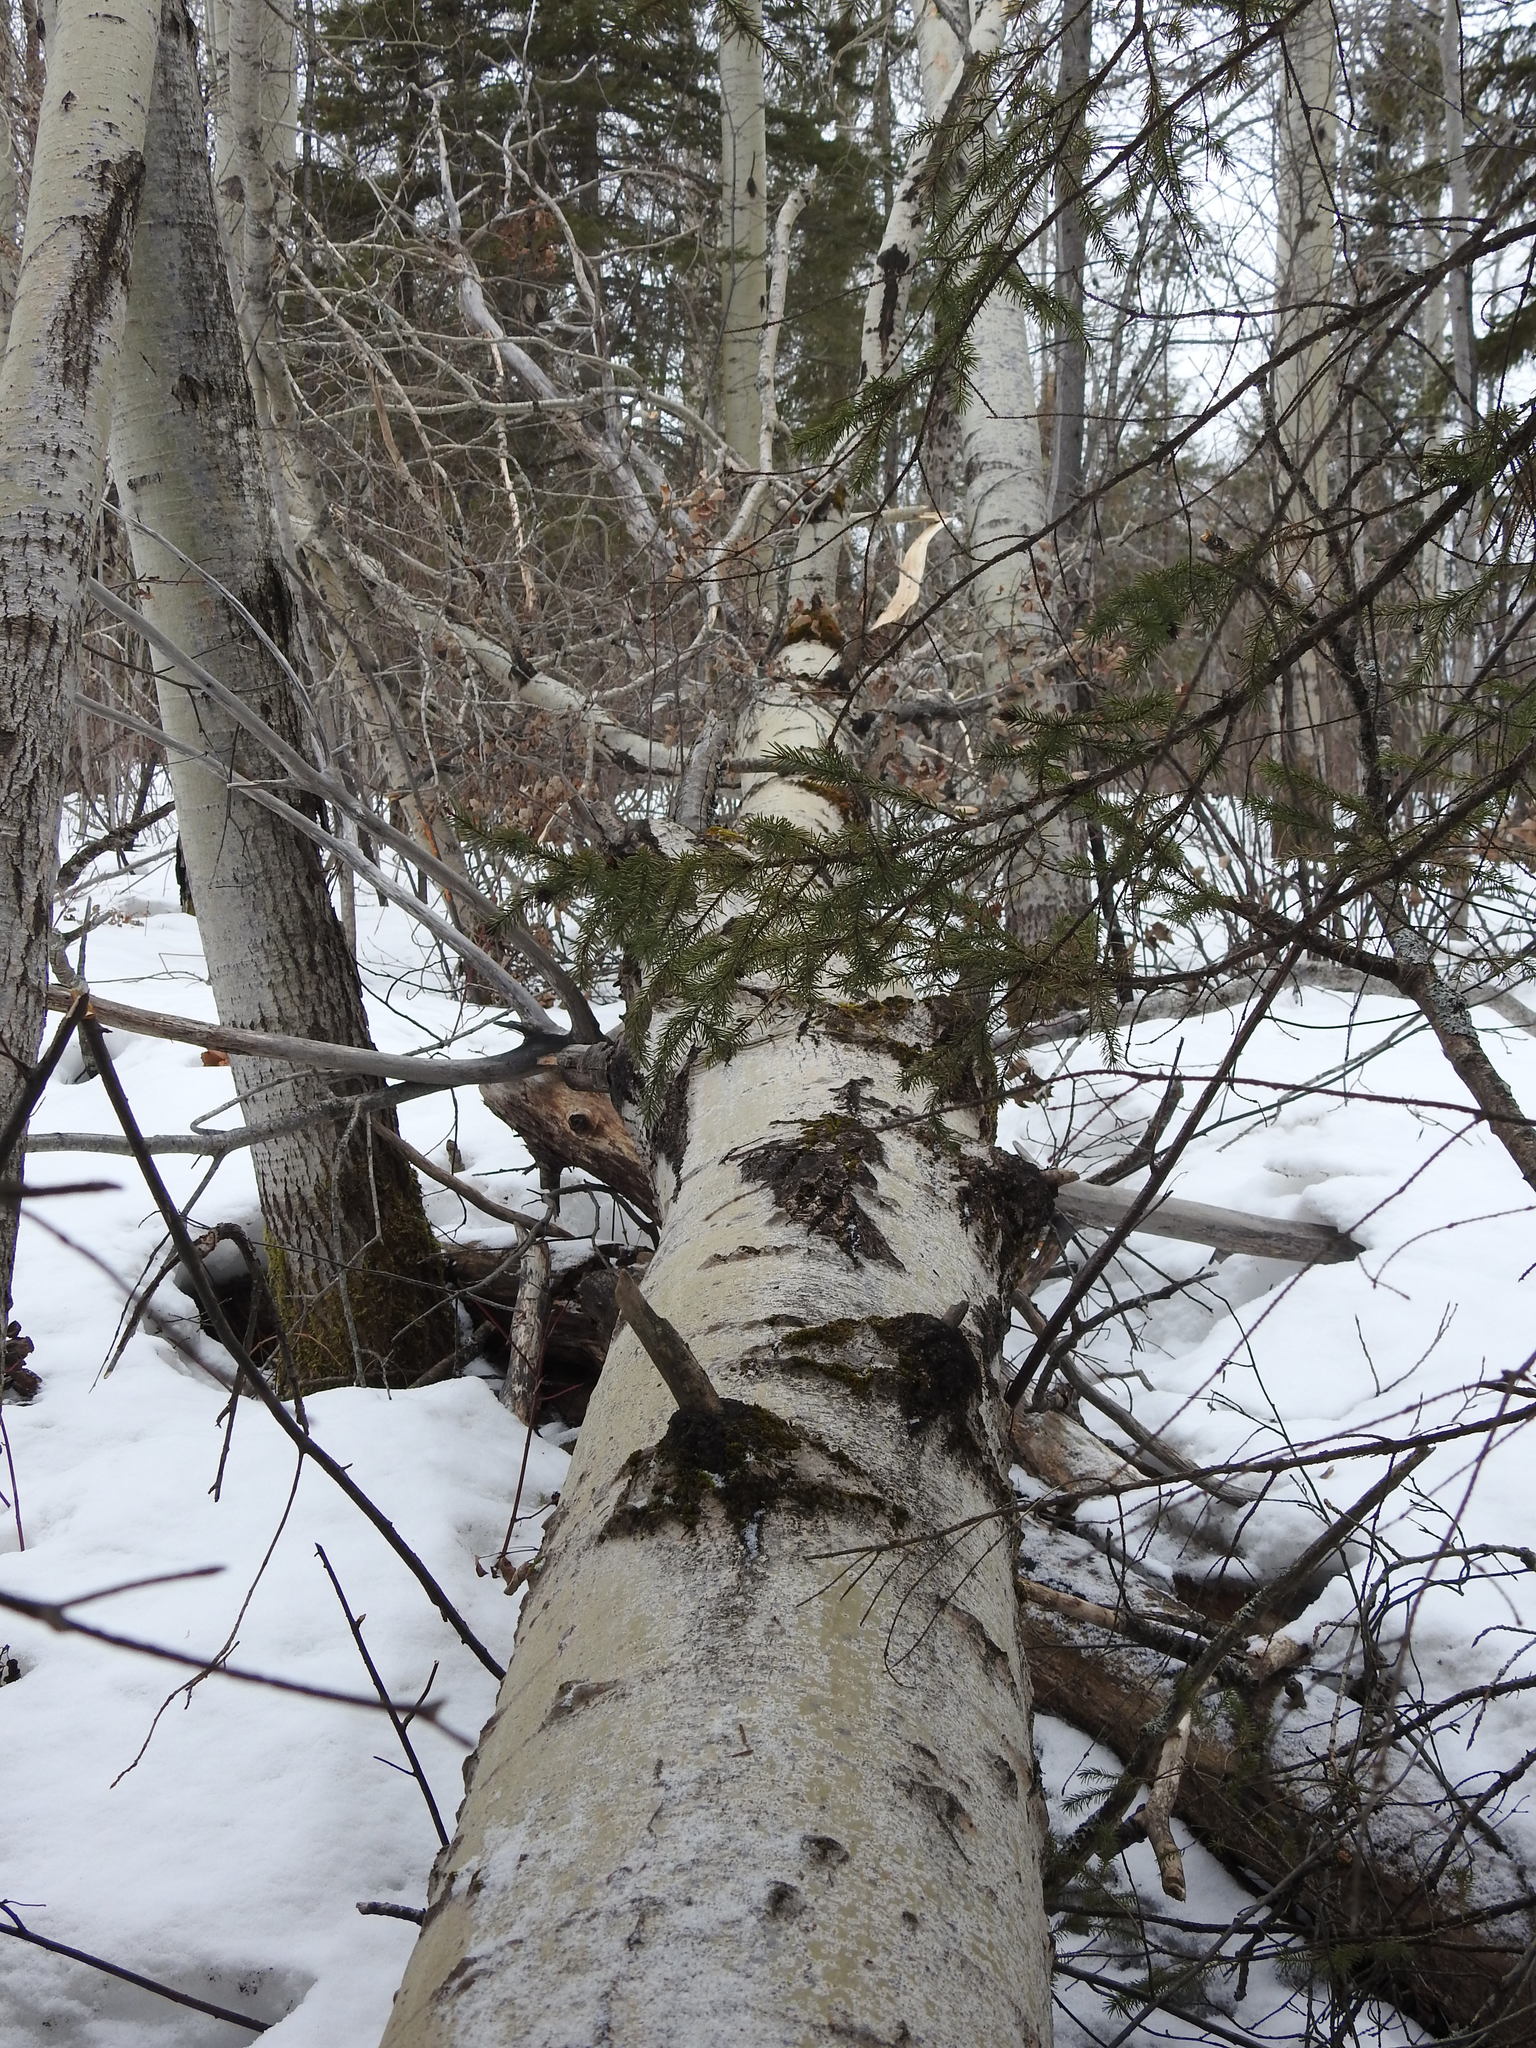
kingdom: Plantae
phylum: Tracheophyta
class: Magnoliopsida
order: Malpighiales
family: Salicaceae
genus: Populus
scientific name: Populus tremuloides
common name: Quaking aspen
